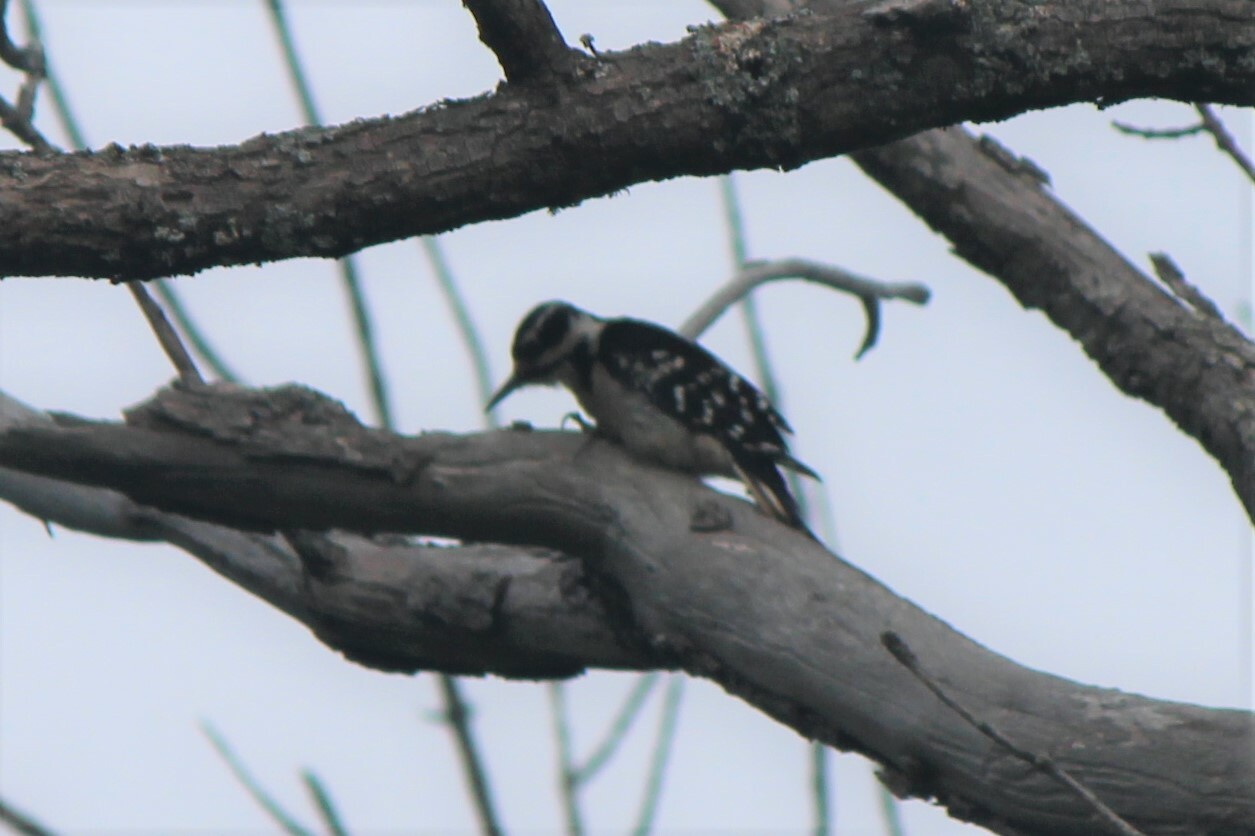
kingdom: Animalia
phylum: Chordata
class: Aves
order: Piciformes
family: Picidae
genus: Leuconotopicus
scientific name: Leuconotopicus villosus
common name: Hairy woodpecker
